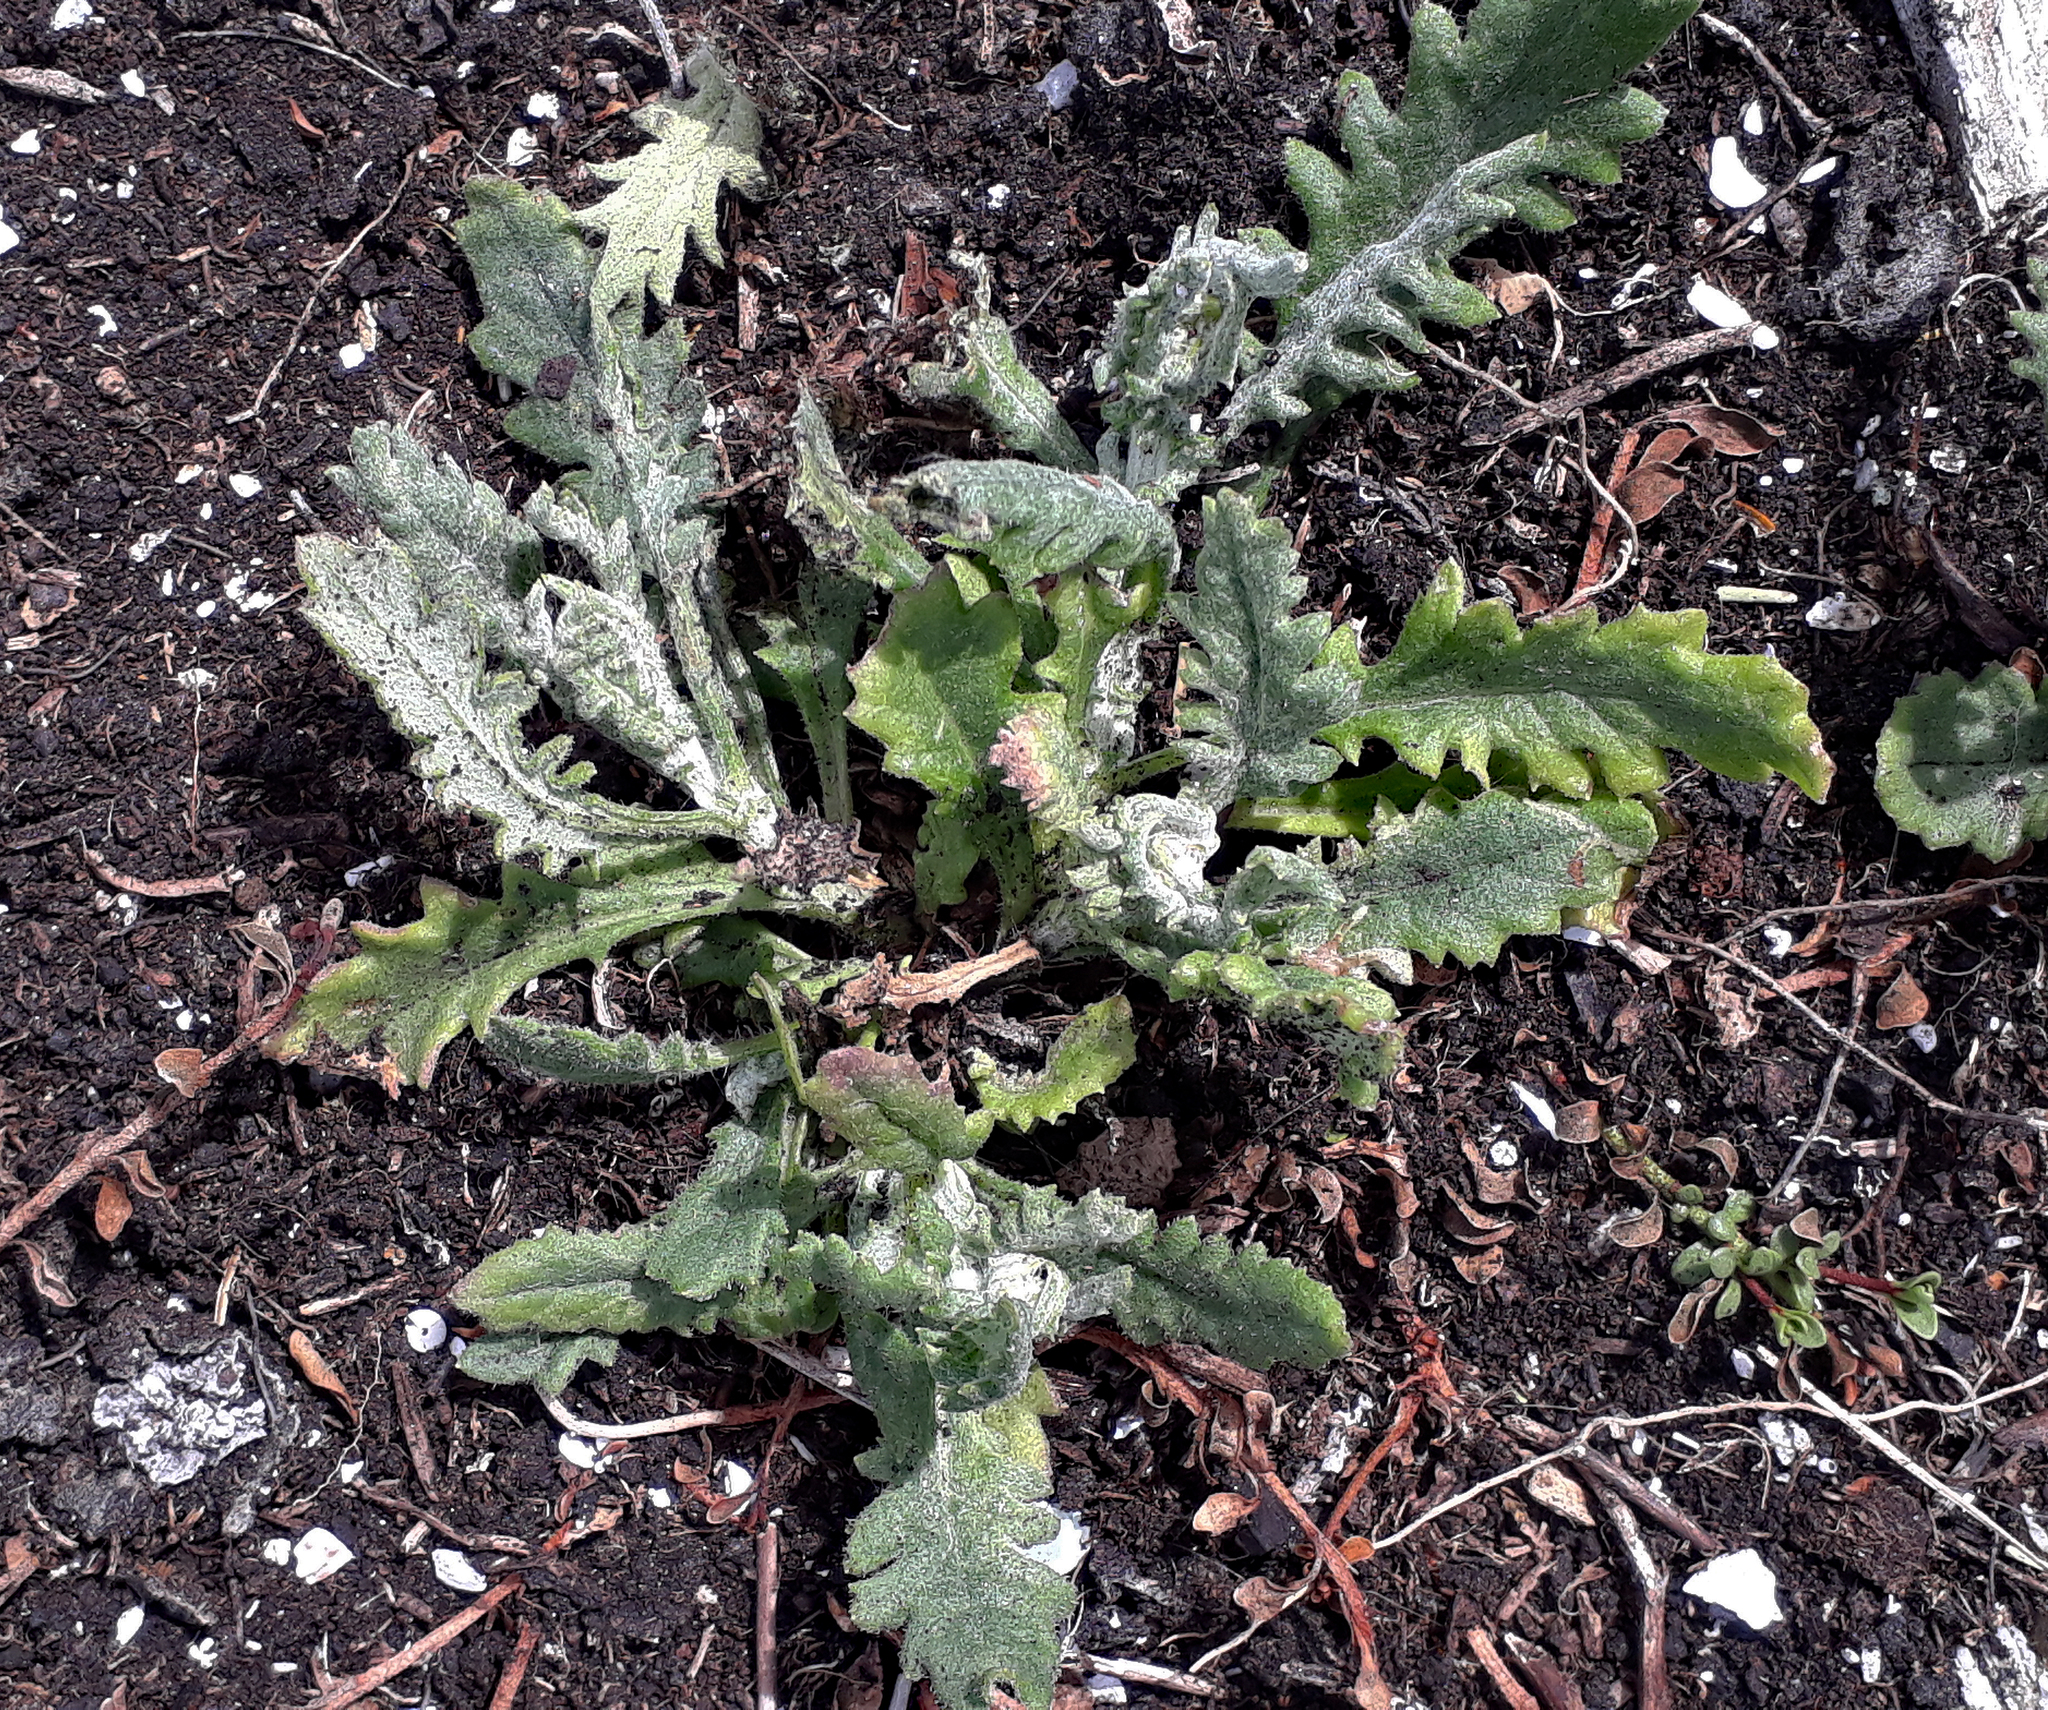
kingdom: Plantae
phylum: Tracheophyta
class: Magnoliopsida
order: Asterales
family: Asteraceae
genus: Senecio
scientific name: Senecio glomeratus
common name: Cutleaf burnweed
